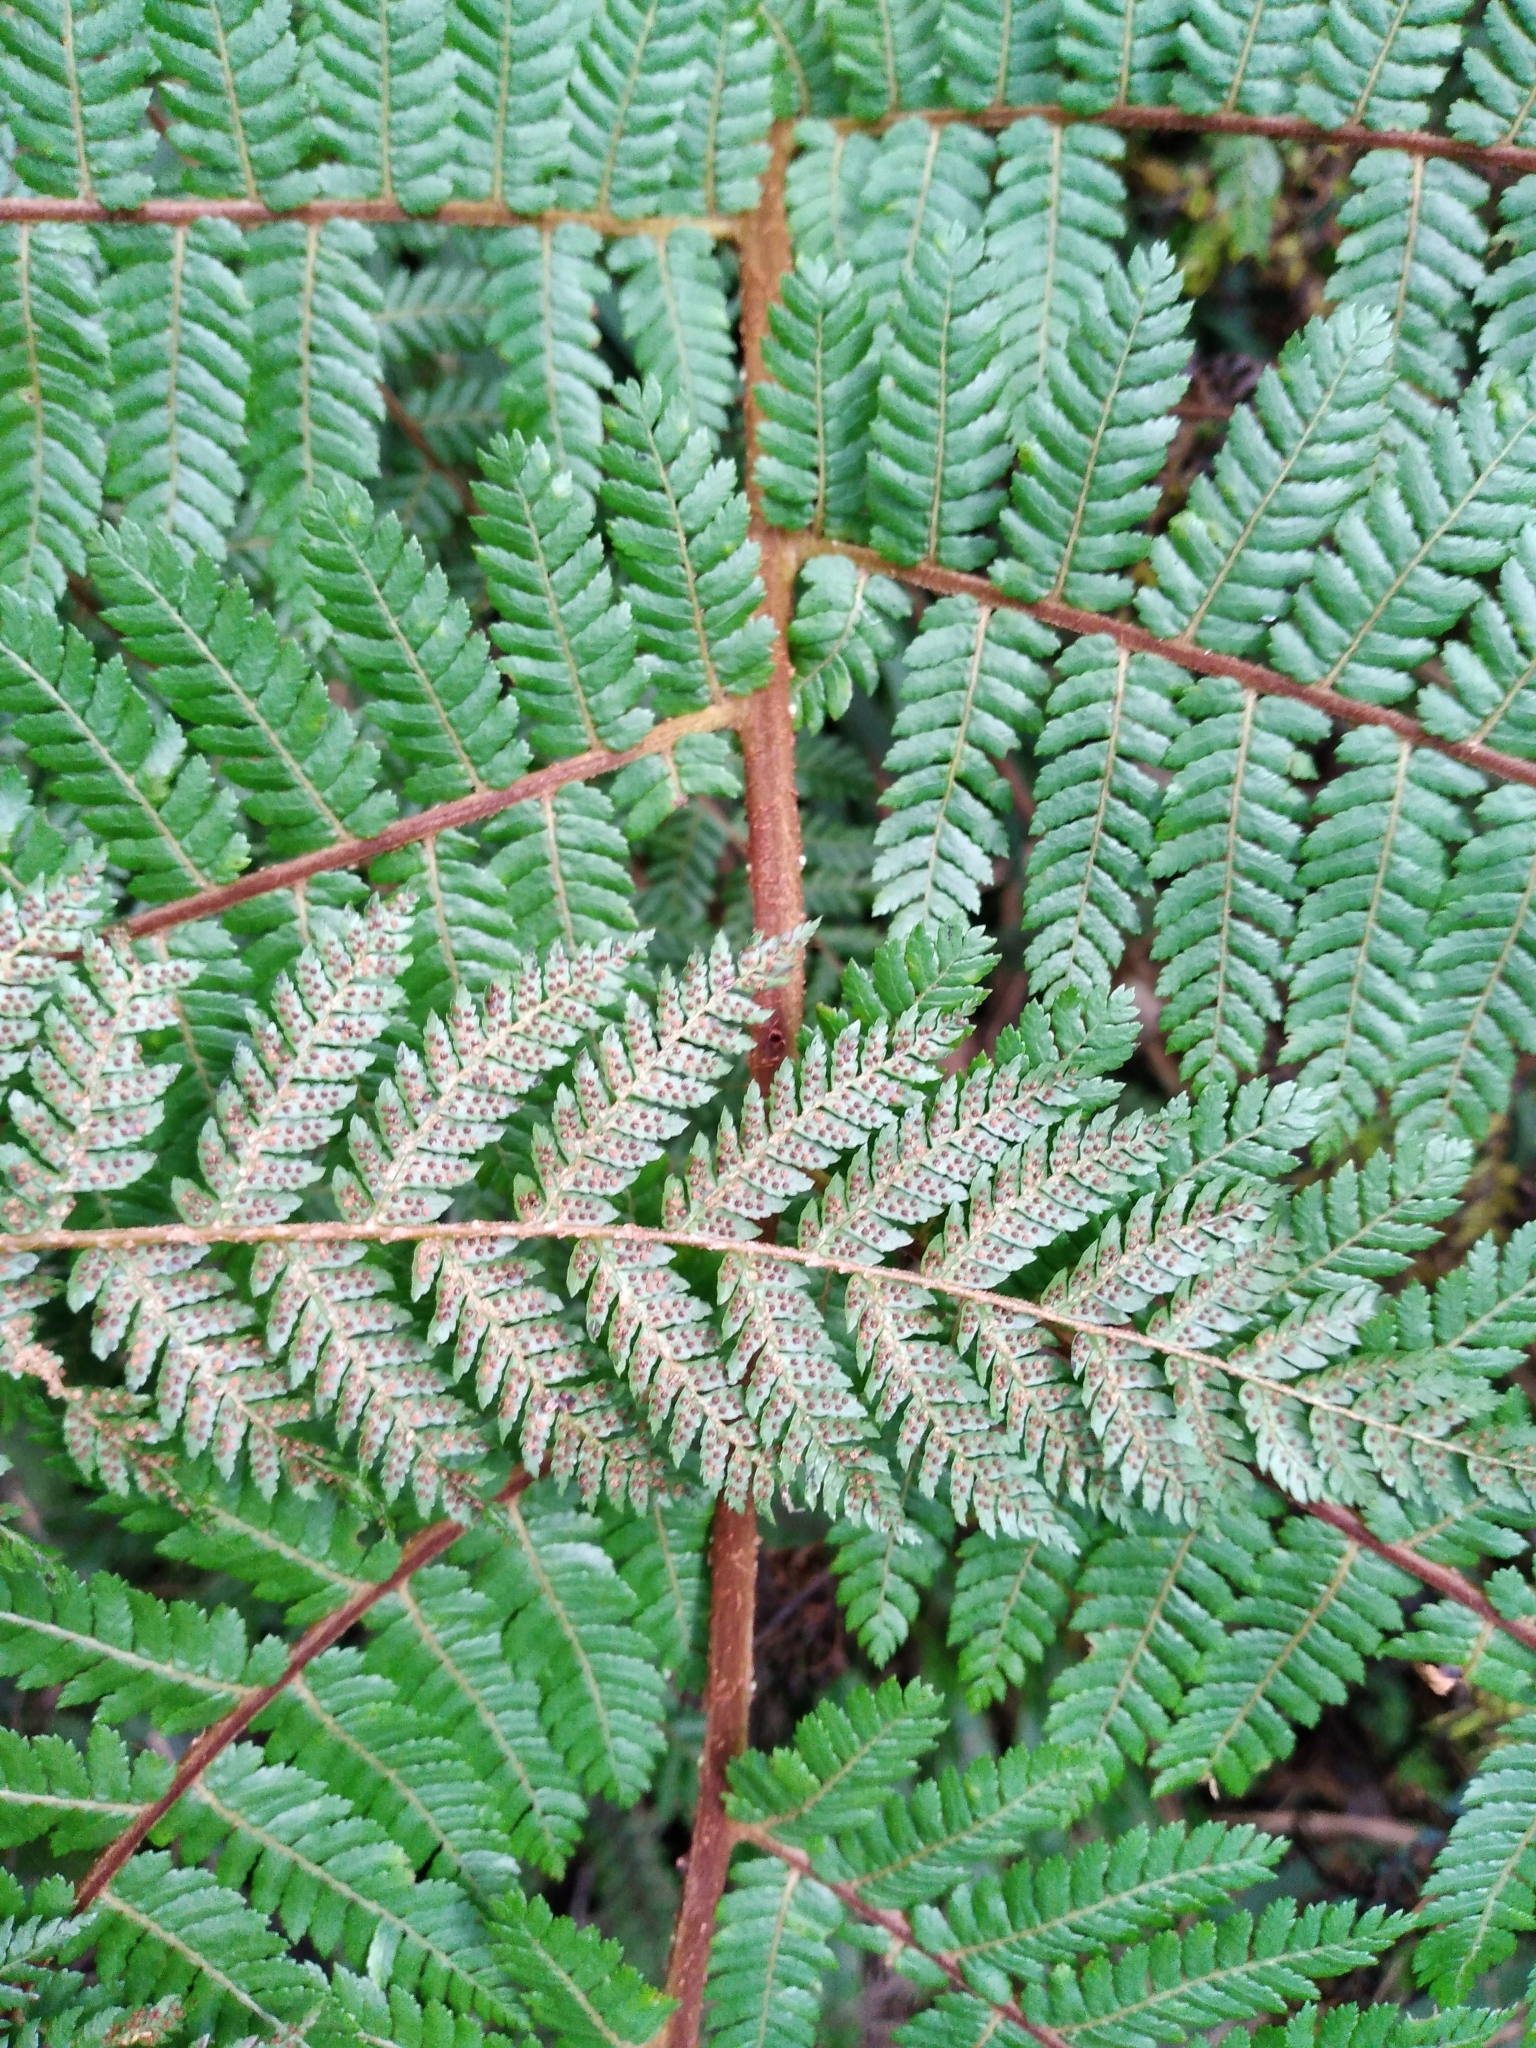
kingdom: Plantae
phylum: Tracheophyta
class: Polypodiopsida
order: Cyatheales
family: Cyatheaceae
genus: Alsophila
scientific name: Alsophila colensoi
